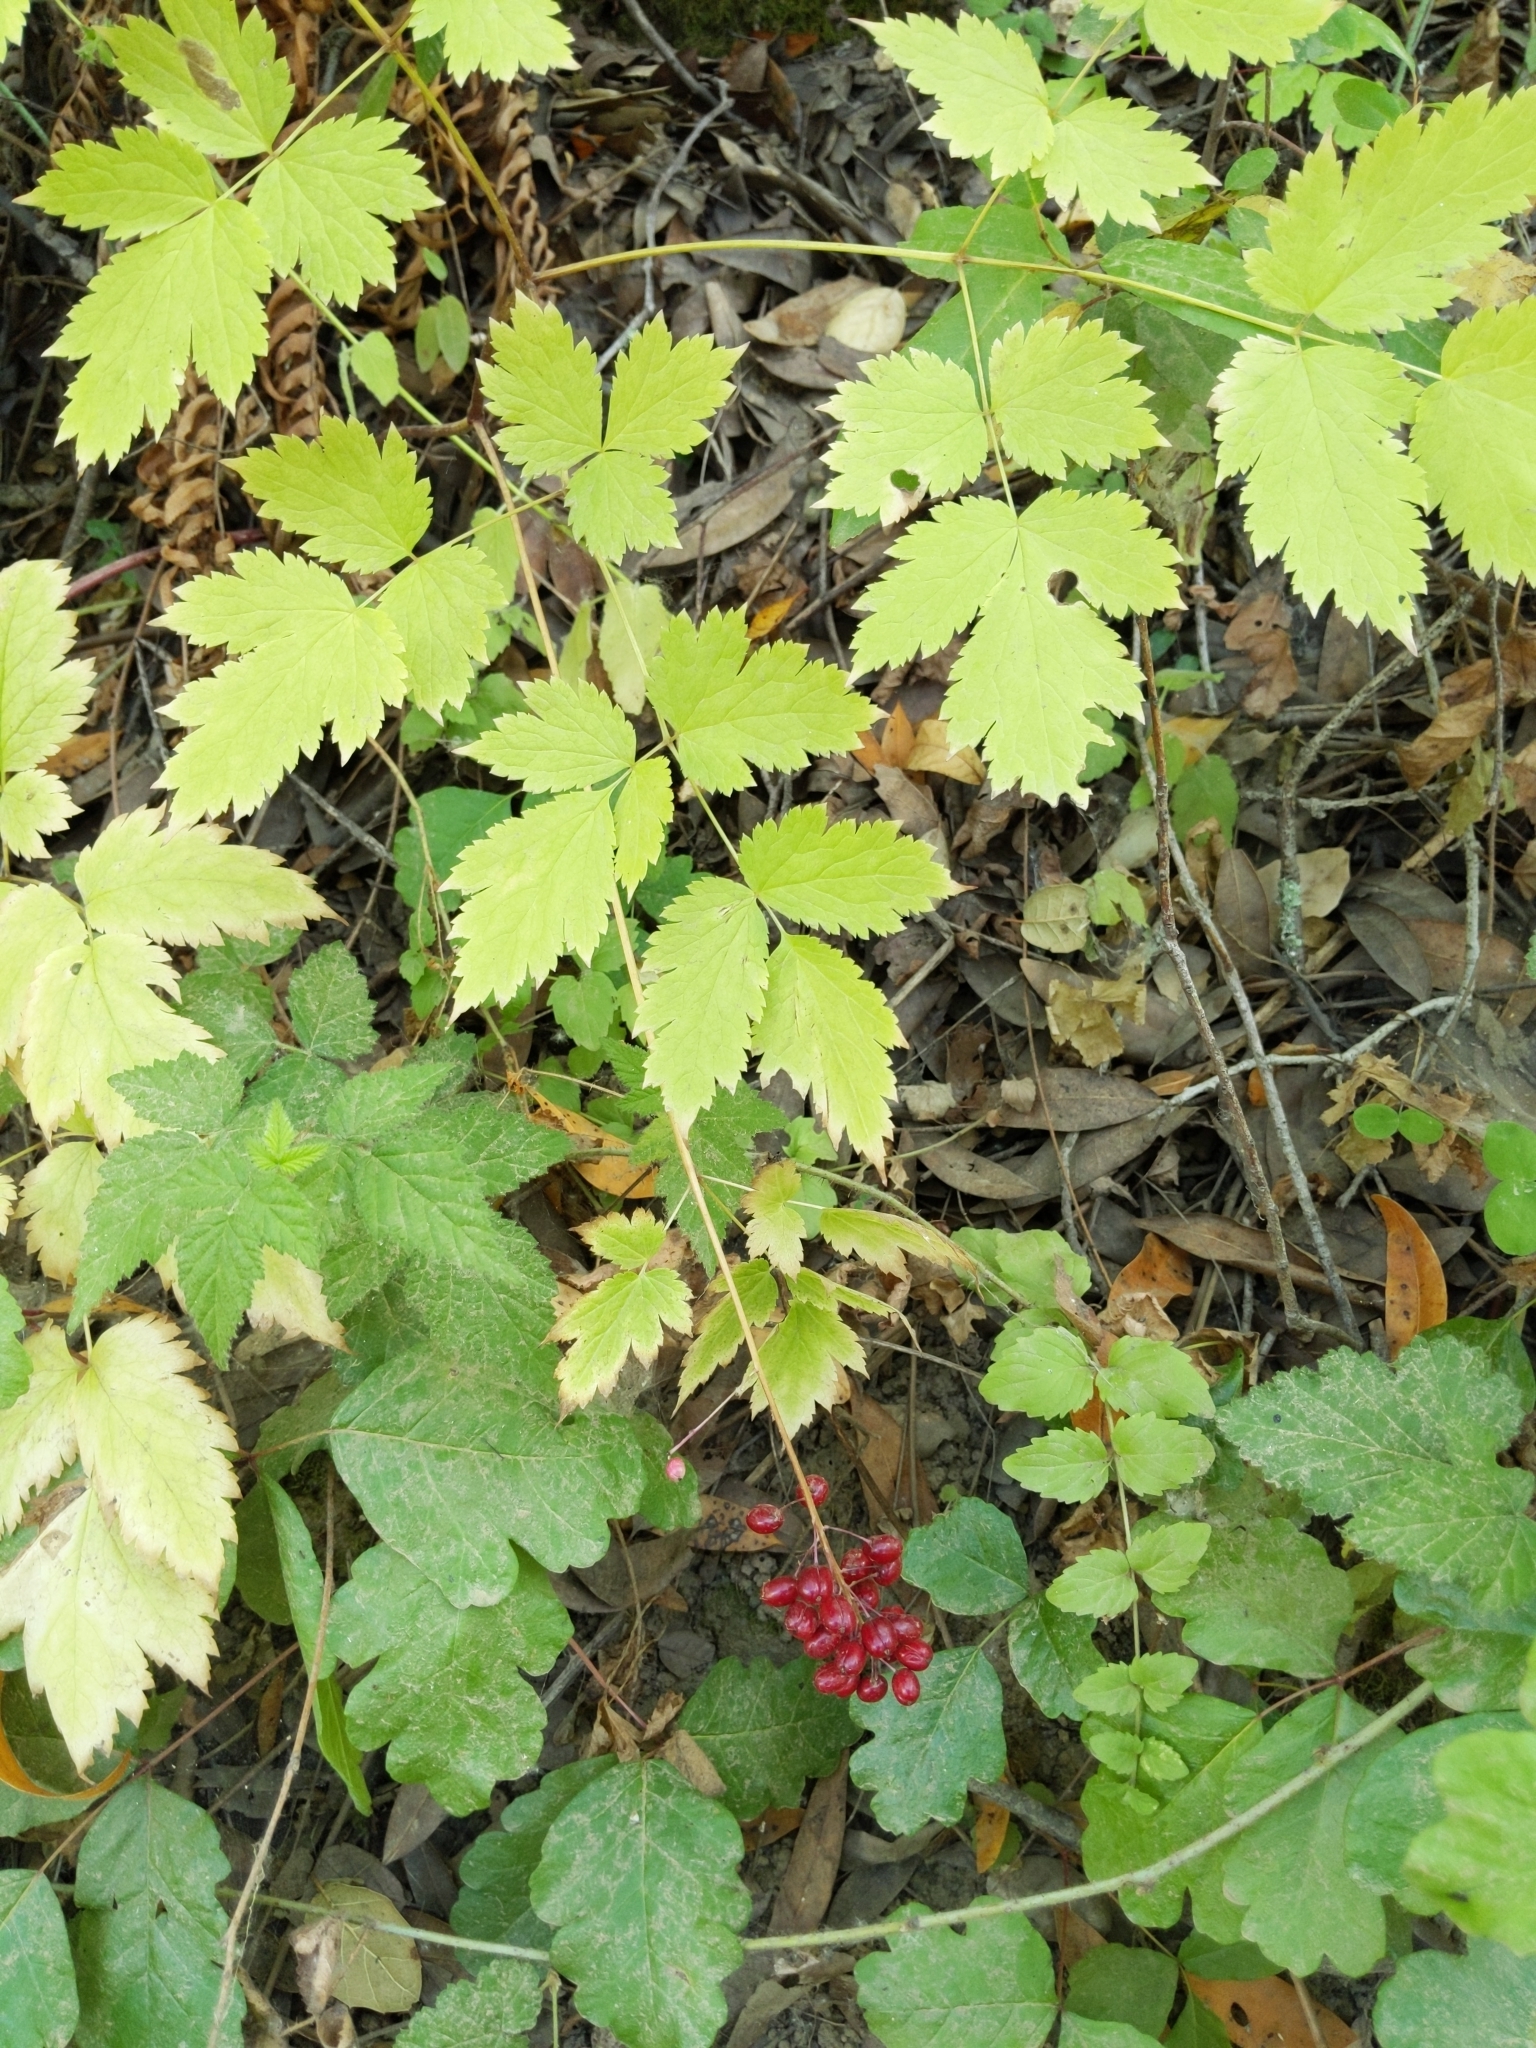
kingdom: Plantae
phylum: Tracheophyta
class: Magnoliopsida
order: Ranunculales
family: Ranunculaceae
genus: Actaea
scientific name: Actaea rubra
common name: Red baneberry
